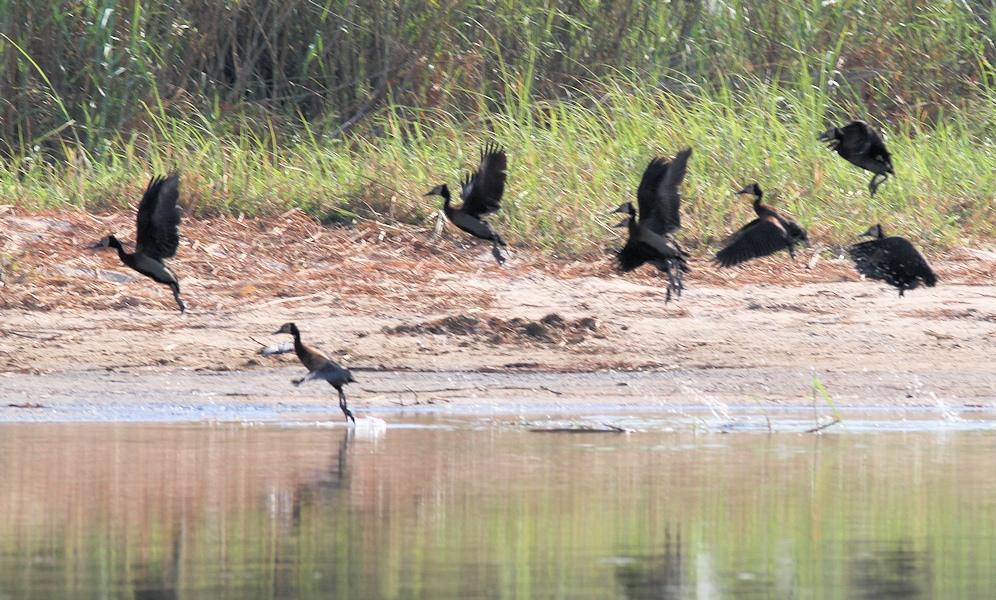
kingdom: Animalia
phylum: Chordata
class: Aves
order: Anseriformes
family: Anatidae
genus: Dendrocygna
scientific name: Dendrocygna viduata
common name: White-faced whistling duck
